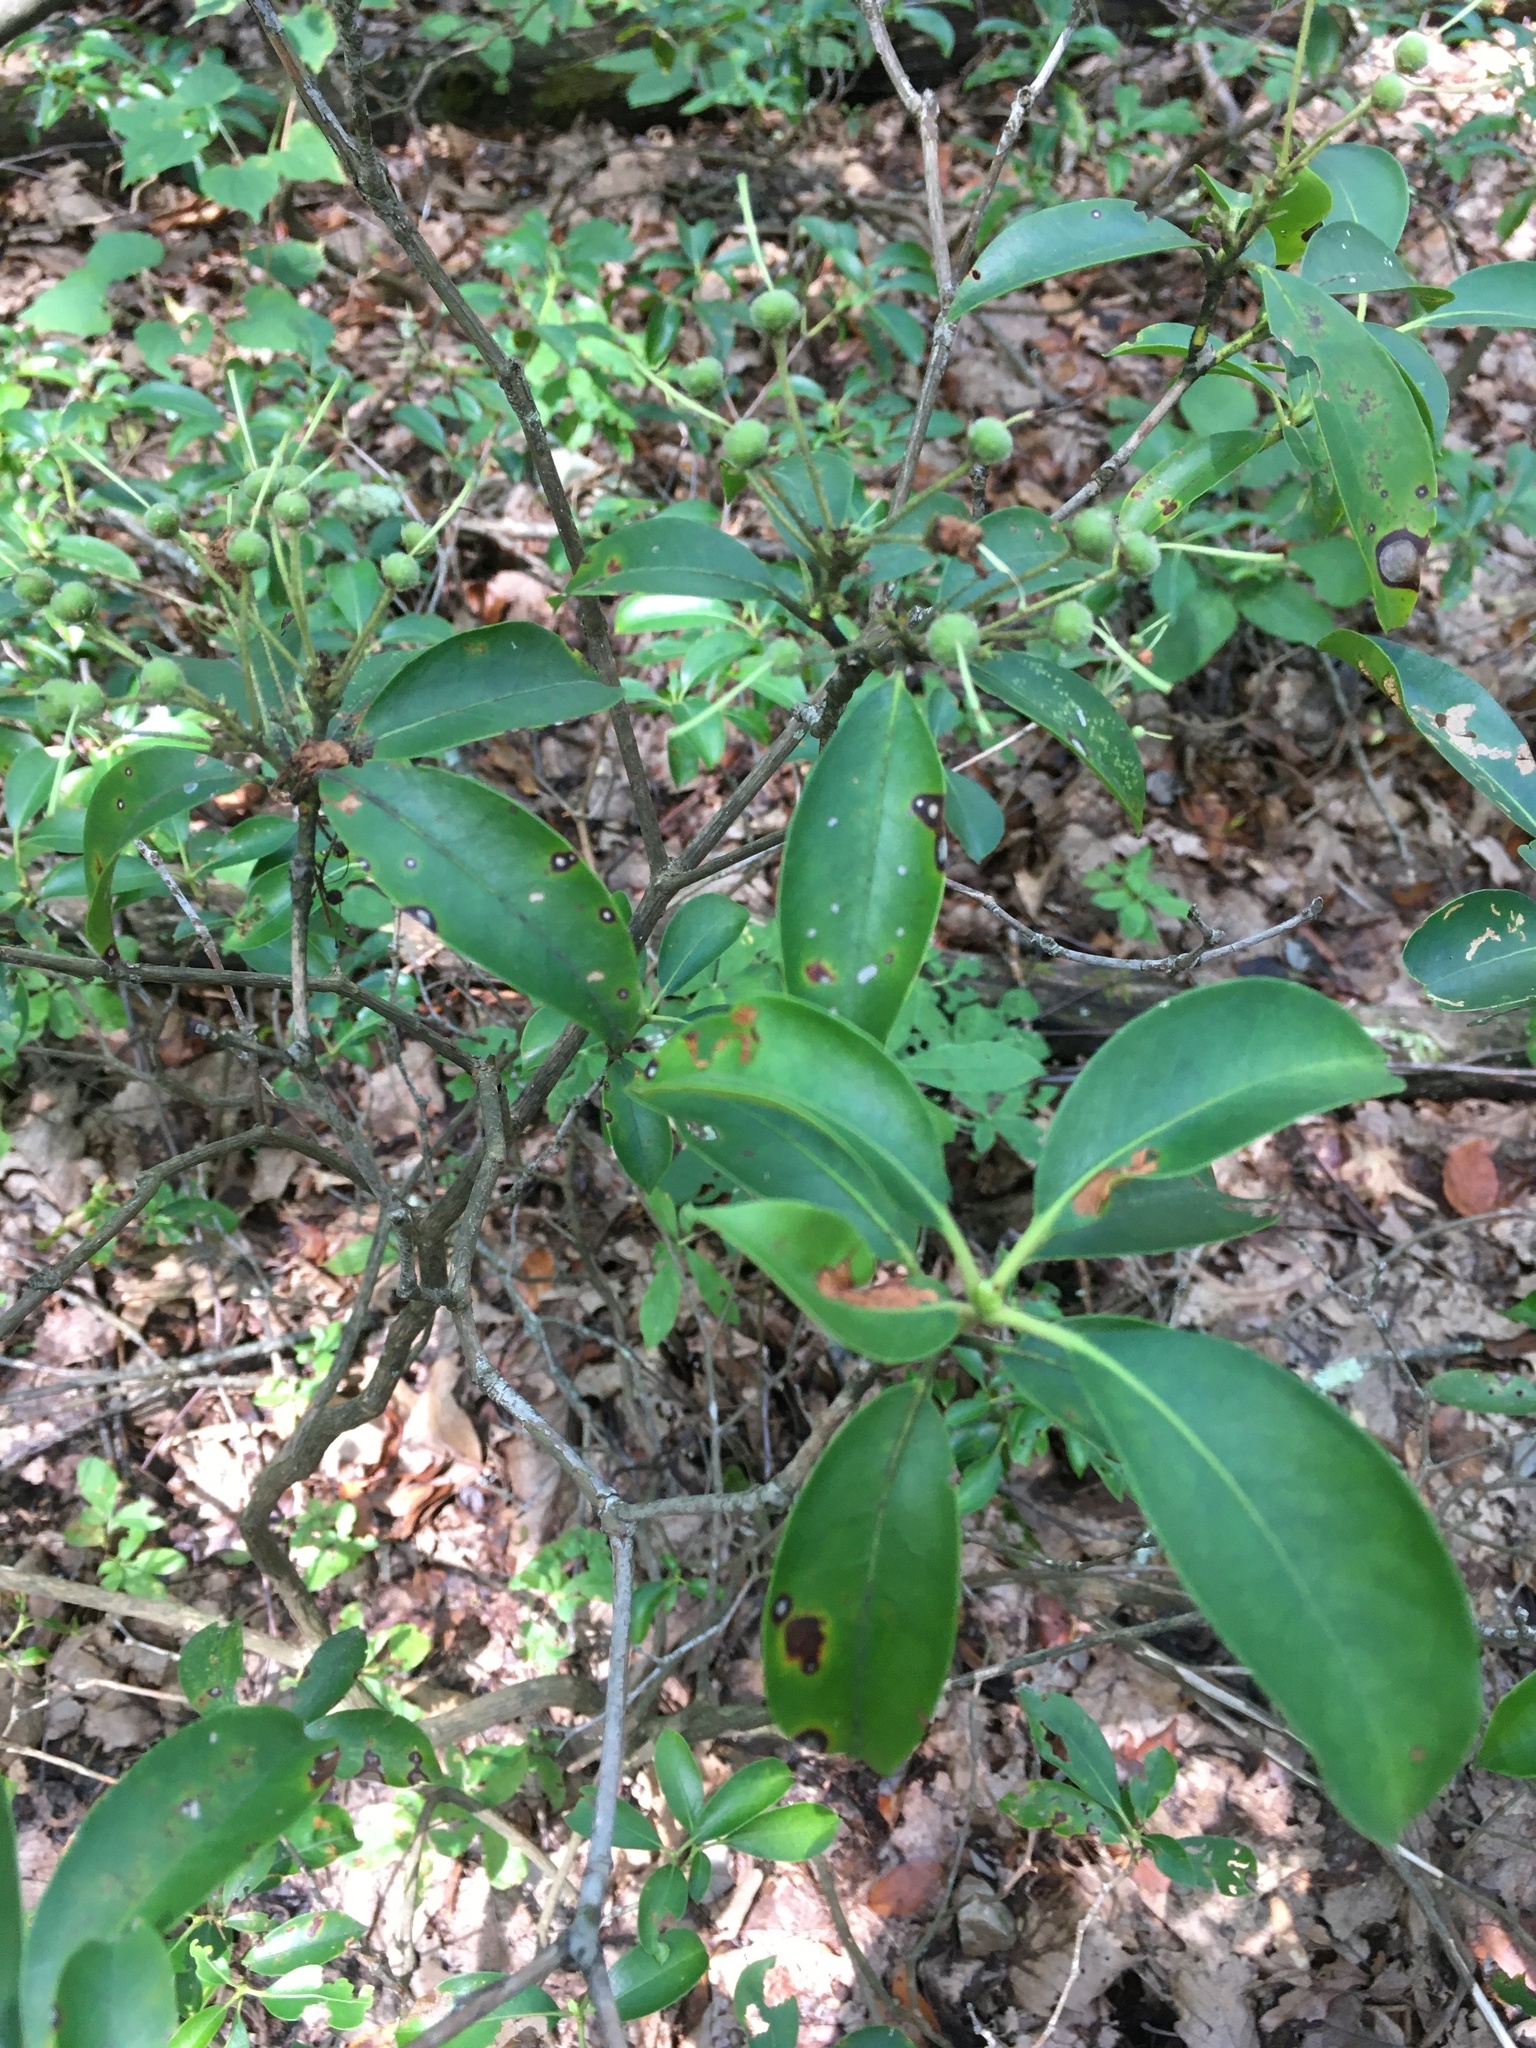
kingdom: Plantae
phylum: Tracheophyta
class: Magnoliopsida
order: Ericales
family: Ericaceae
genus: Kalmia
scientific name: Kalmia latifolia
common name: Mountain-laurel
